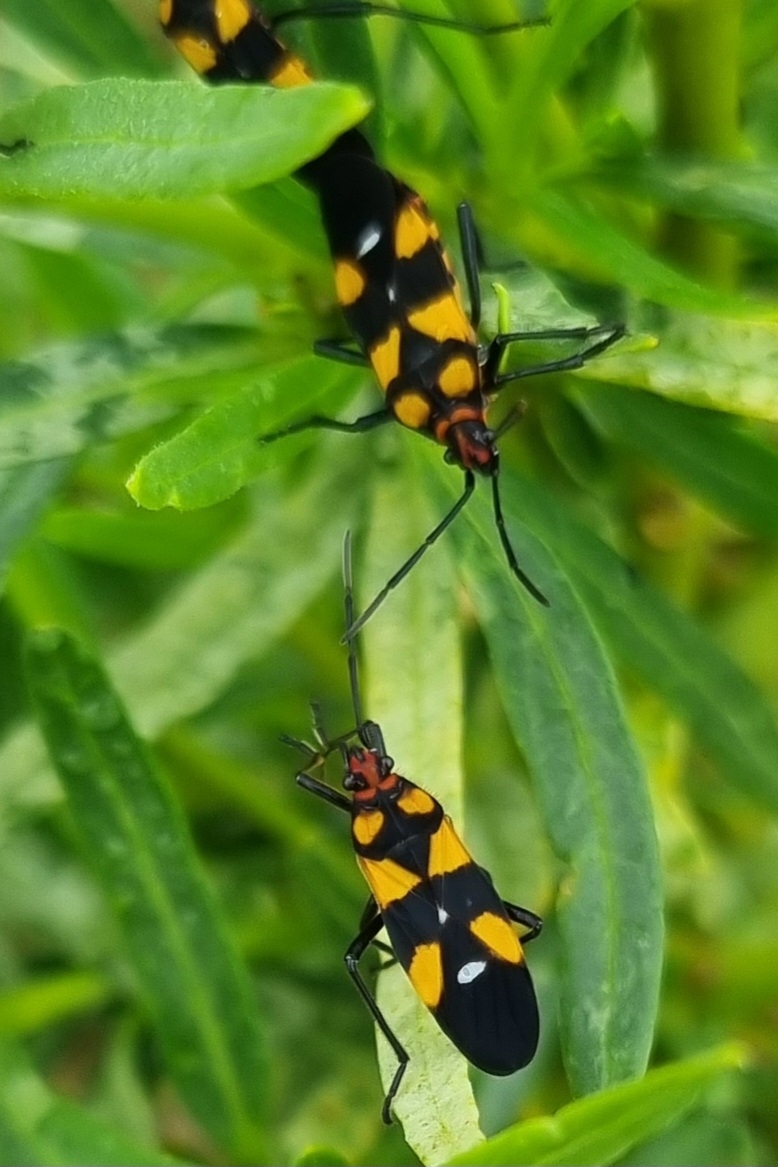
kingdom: Animalia
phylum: Arthropoda
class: Insecta
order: Hemiptera
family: Lygaeidae
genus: Oncopeltus
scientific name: Oncopeltus famelicus
